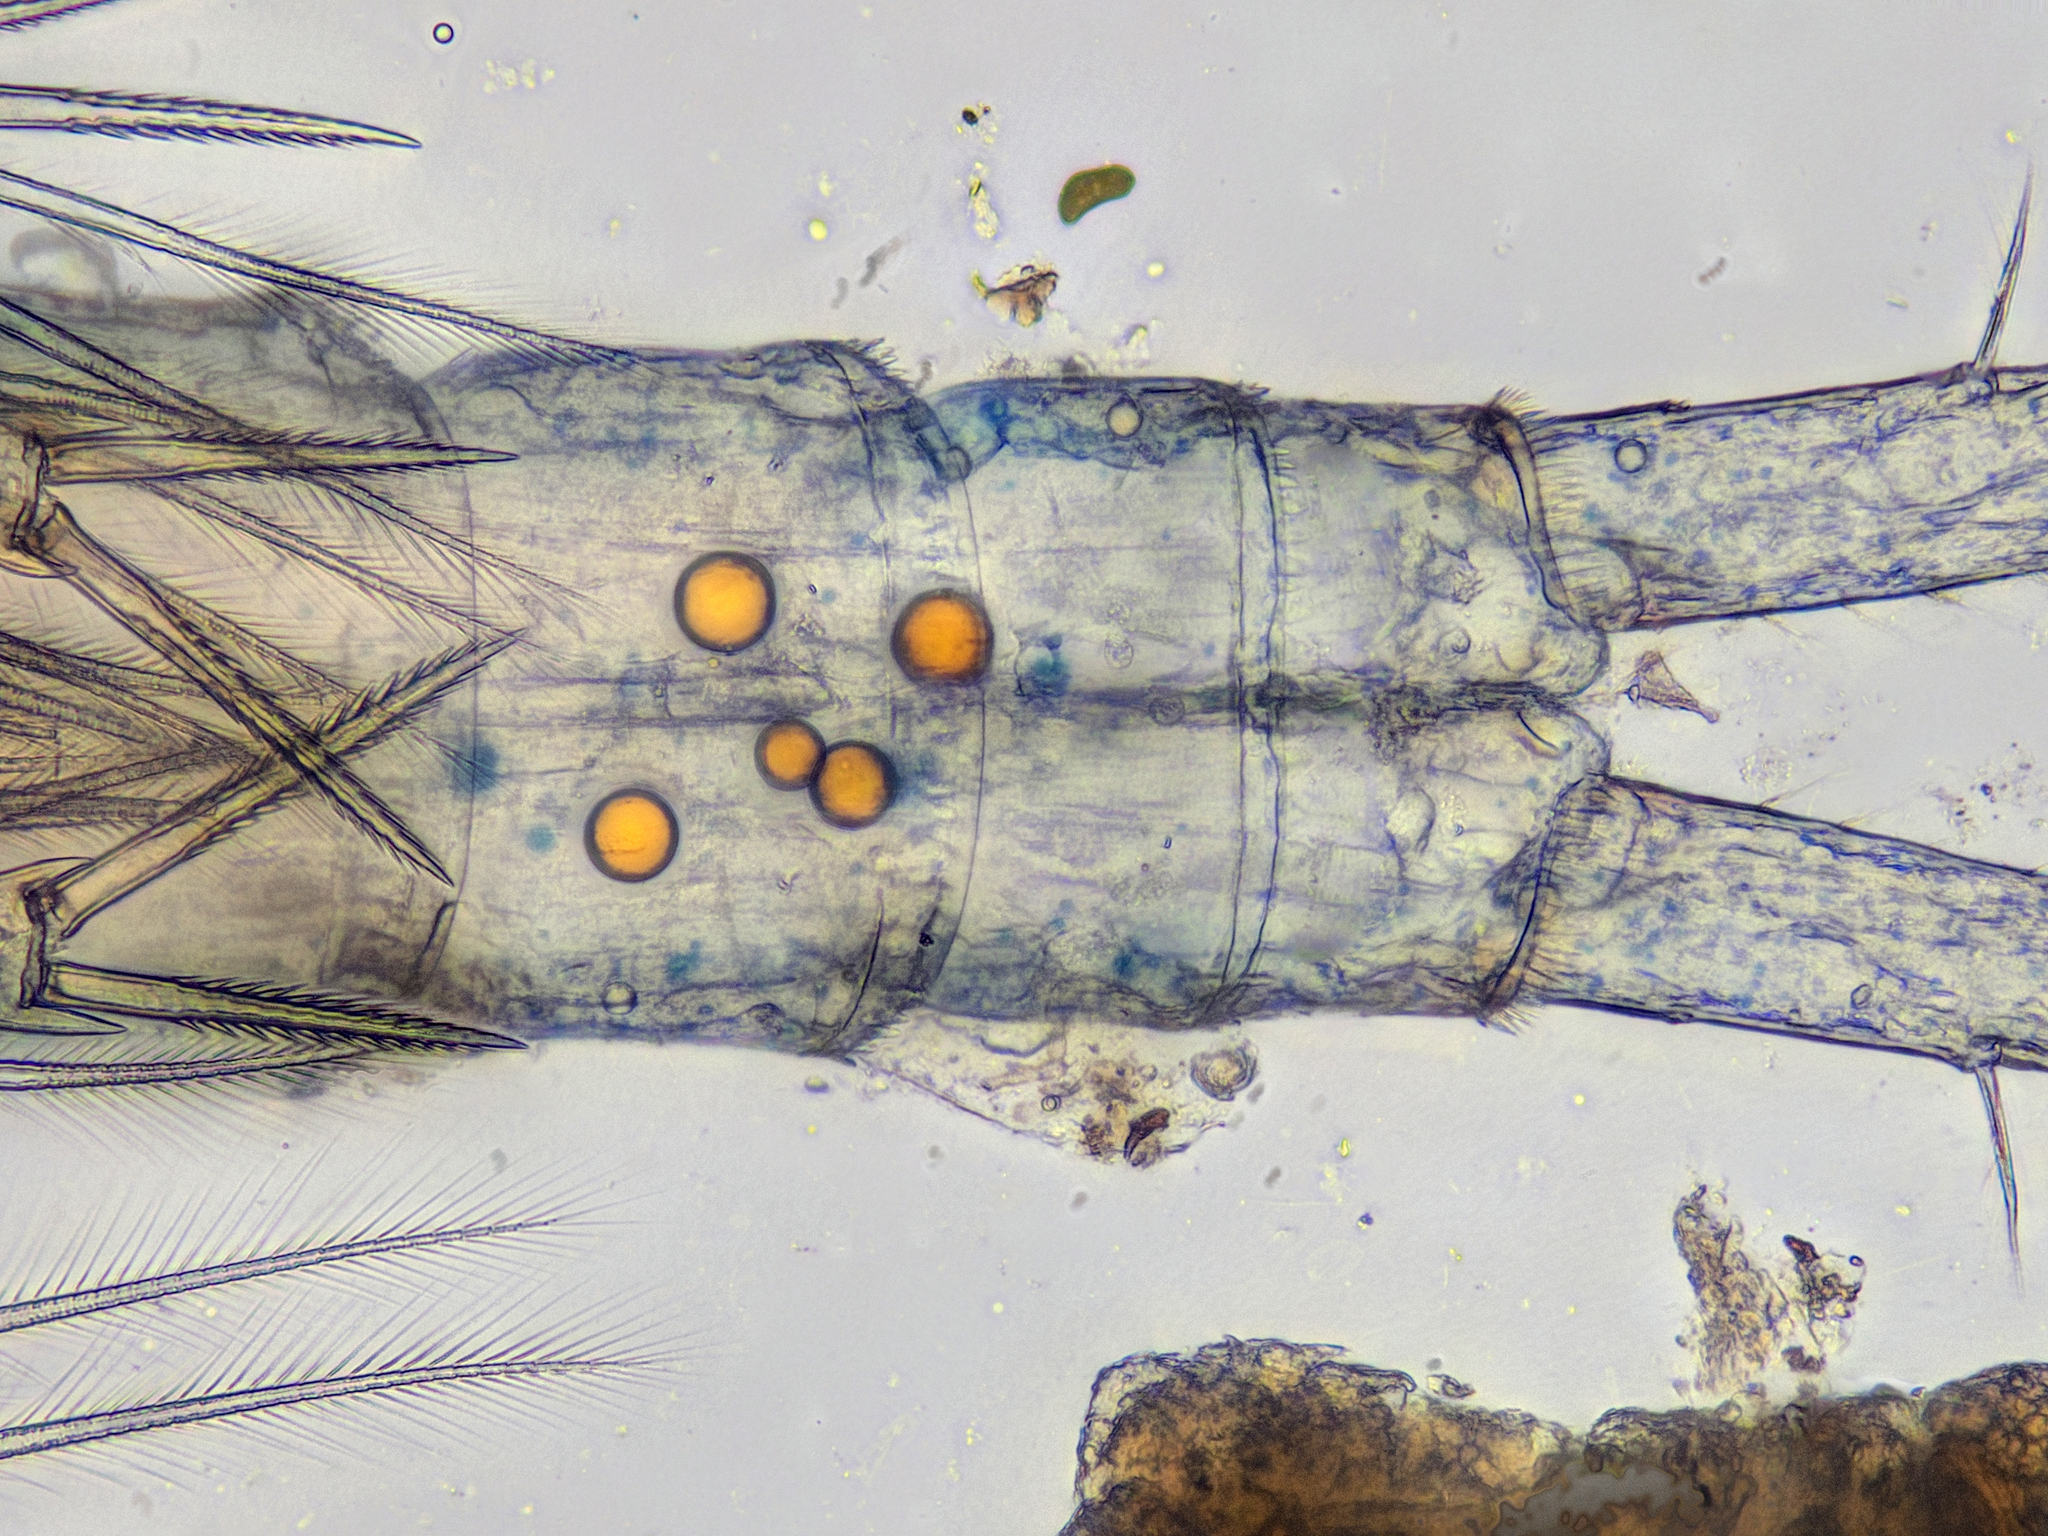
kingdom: Animalia
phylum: Arthropoda
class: Copepoda
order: Cyclopoida
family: Cyclopidae
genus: Megacyclops
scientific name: Megacyclops viridis
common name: Cyclopoid copepod
